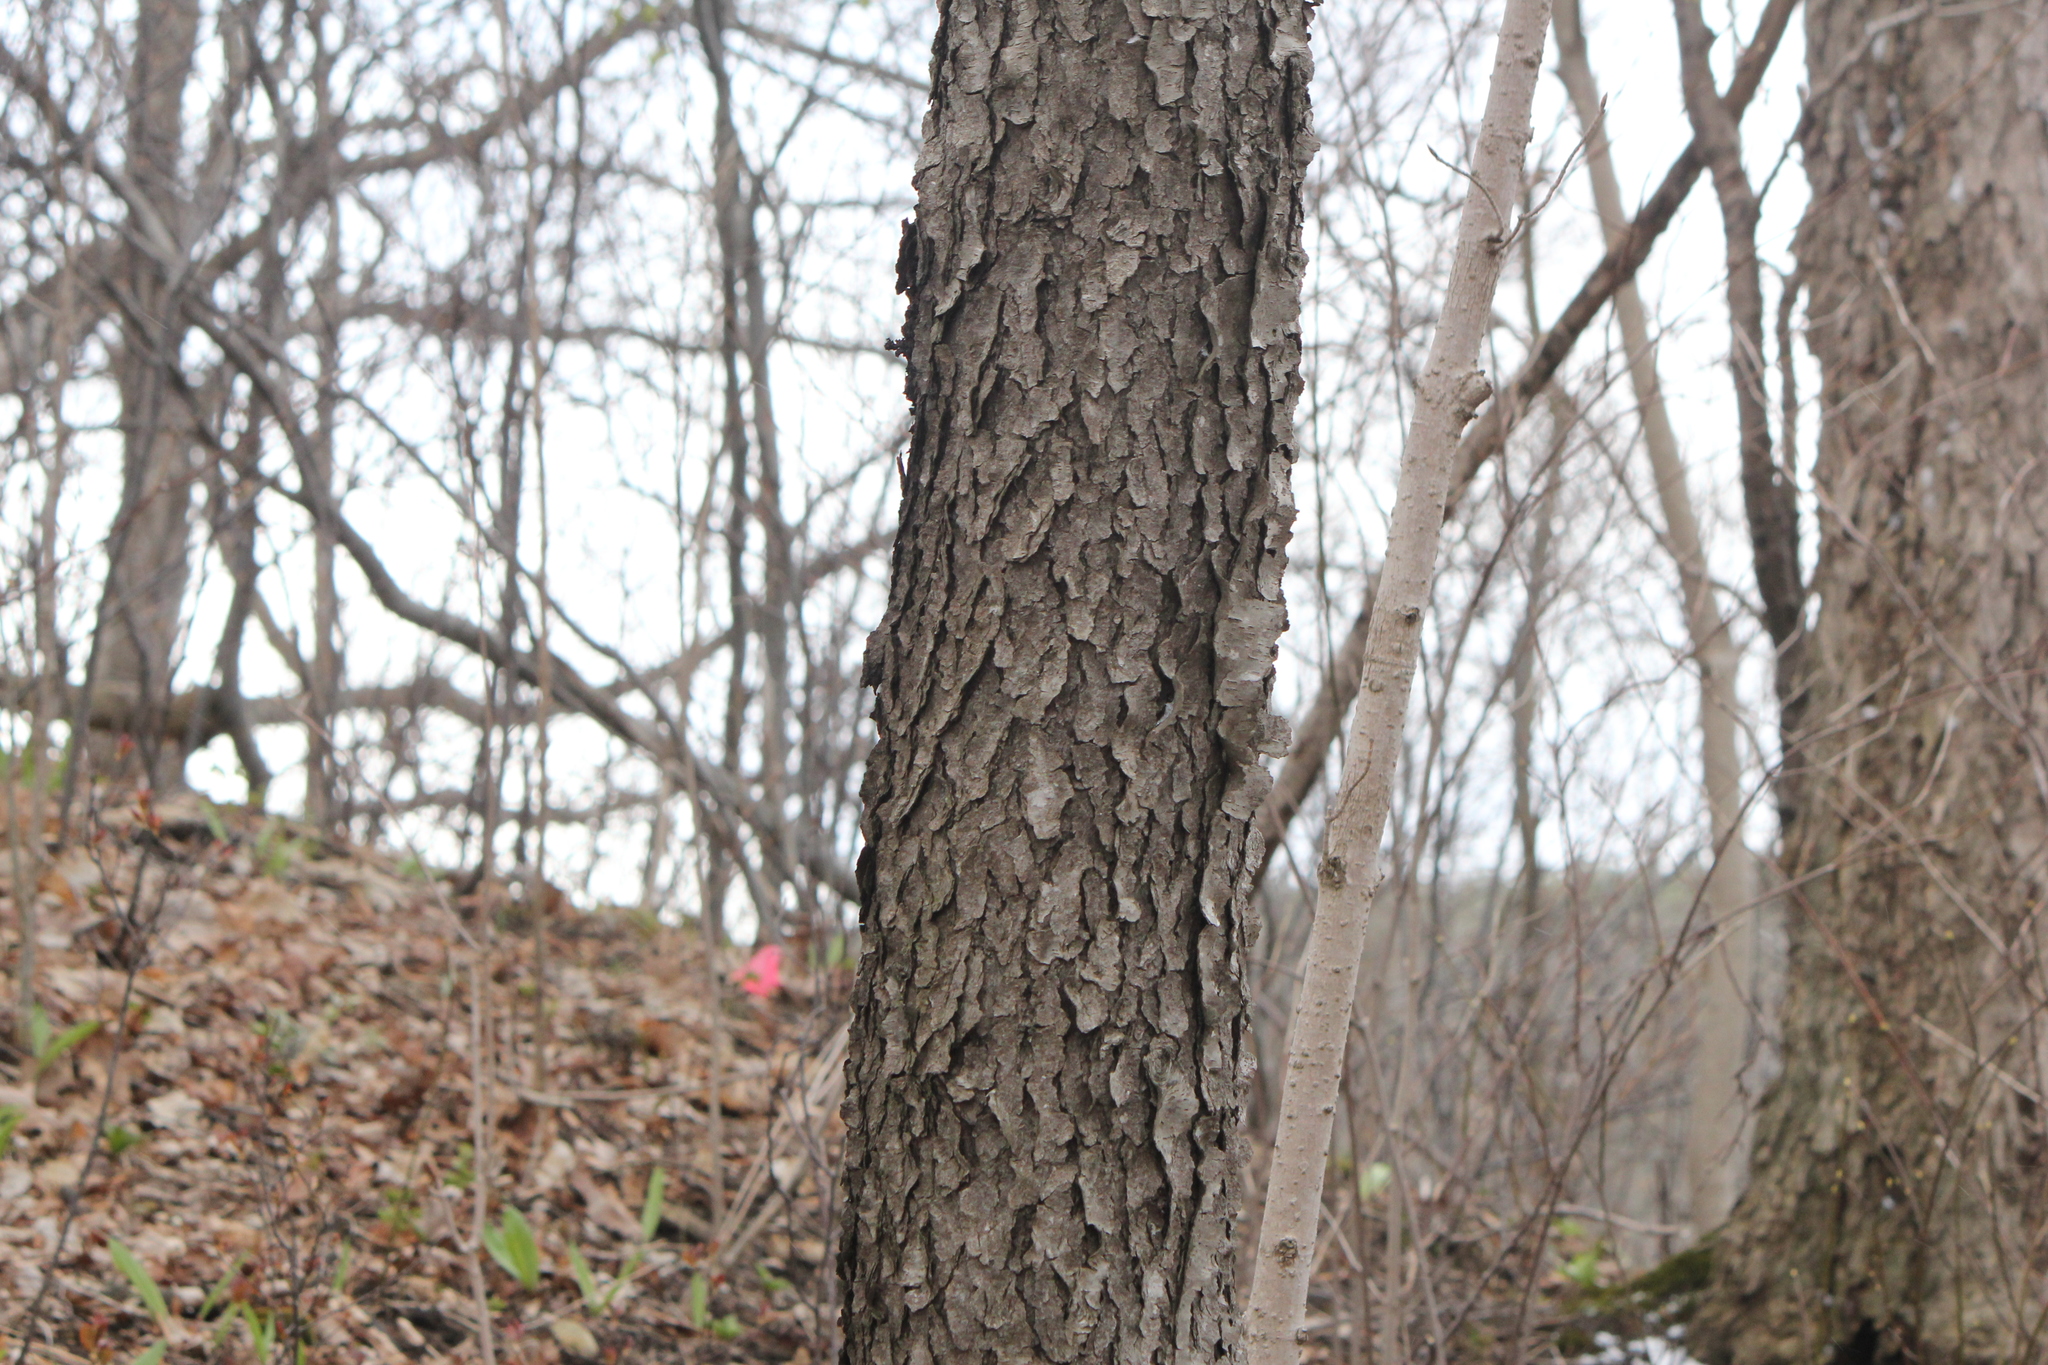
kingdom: Plantae
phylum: Tracheophyta
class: Magnoliopsida
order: Rosales
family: Rosaceae
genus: Prunus
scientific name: Prunus serotina
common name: Black cherry
